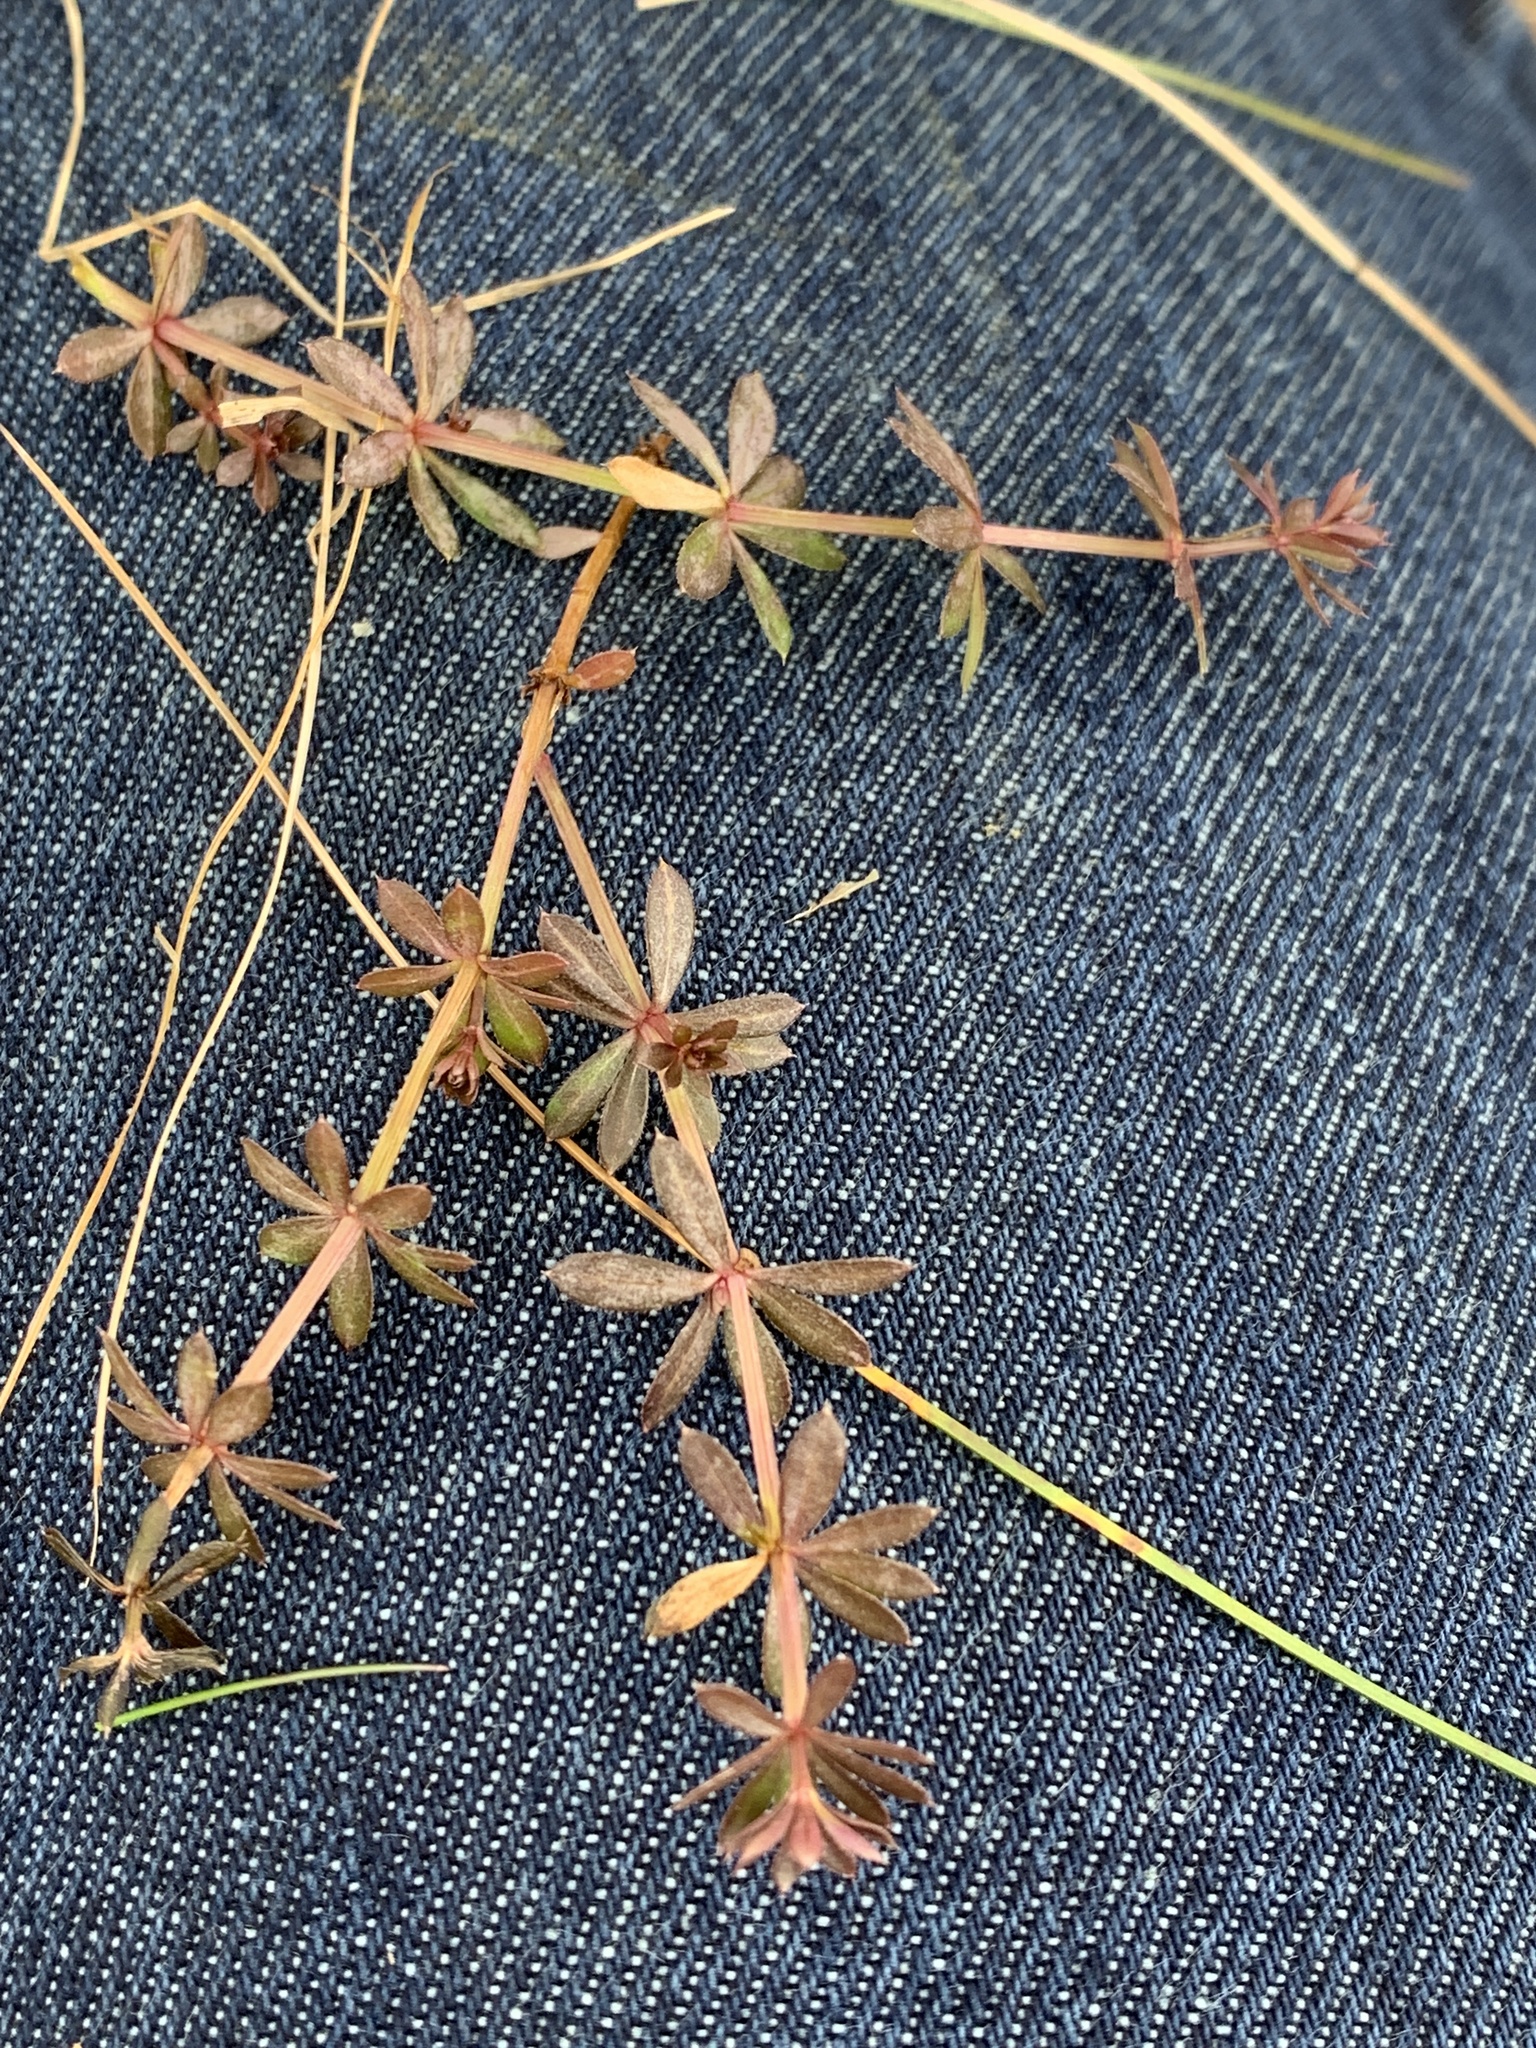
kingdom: Plantae
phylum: Tracheophyta
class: Magnoliopsida
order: Gentianales
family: Rubiaceae
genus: Galium
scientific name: Galium mollugo
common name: Hedge bedstraw
